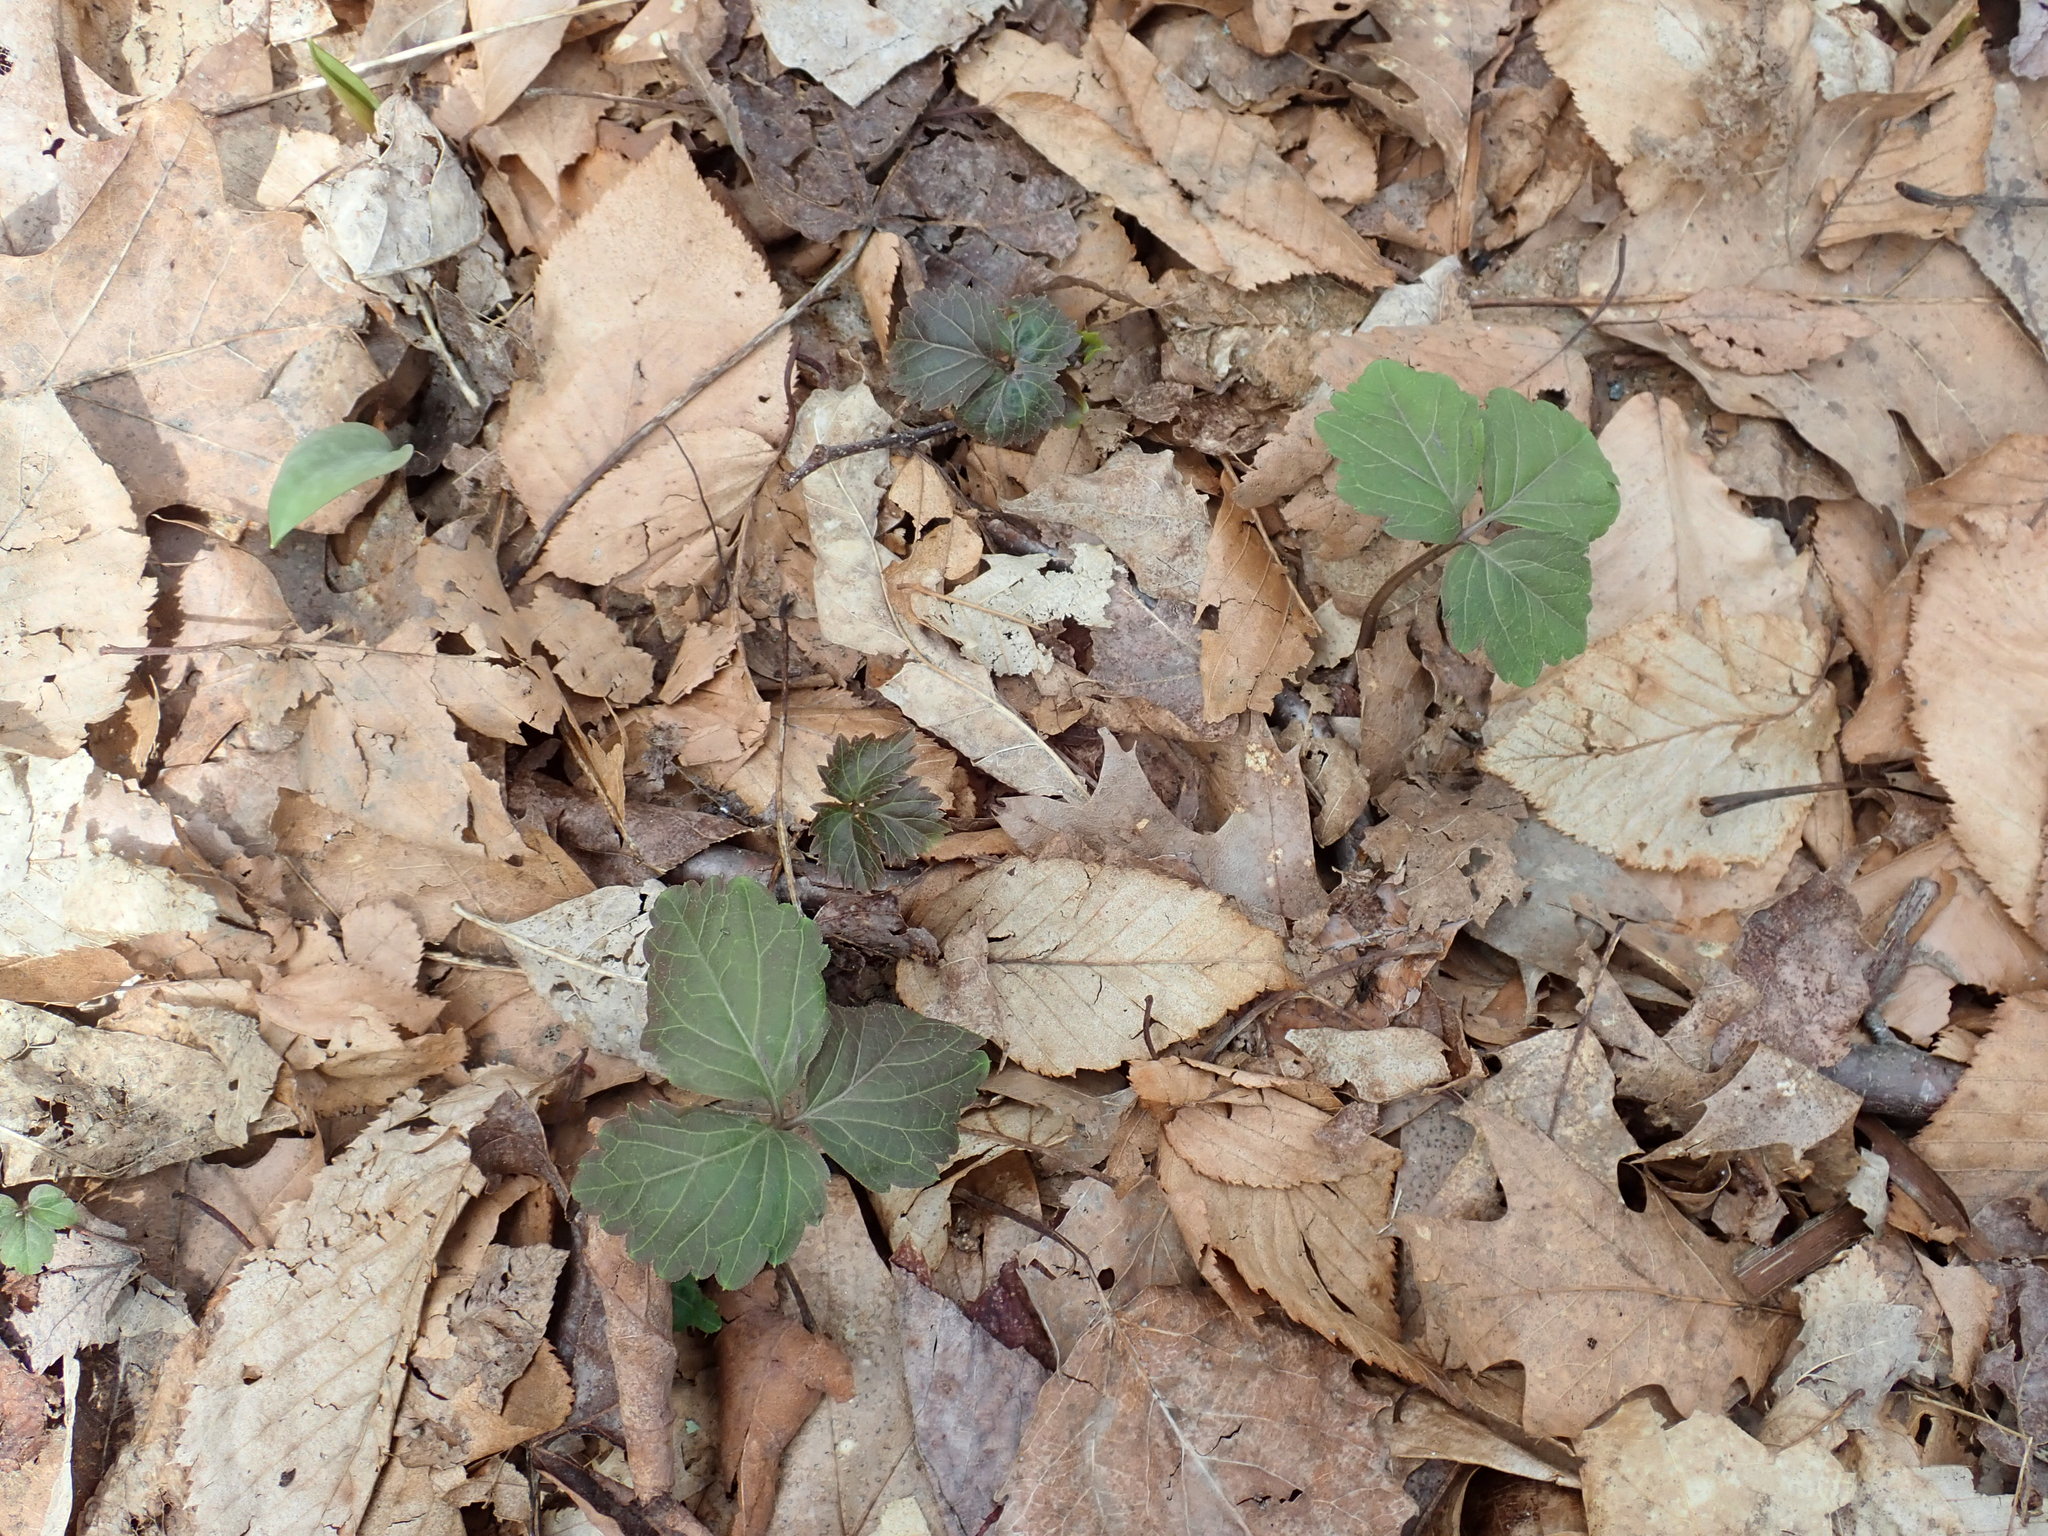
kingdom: Plantae
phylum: Tracheophyta
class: Magnoliopsida
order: Brassicales
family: Brassicaceae
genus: Cardamine
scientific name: Cardamine diphylla
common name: Broad-leaved toothwort
